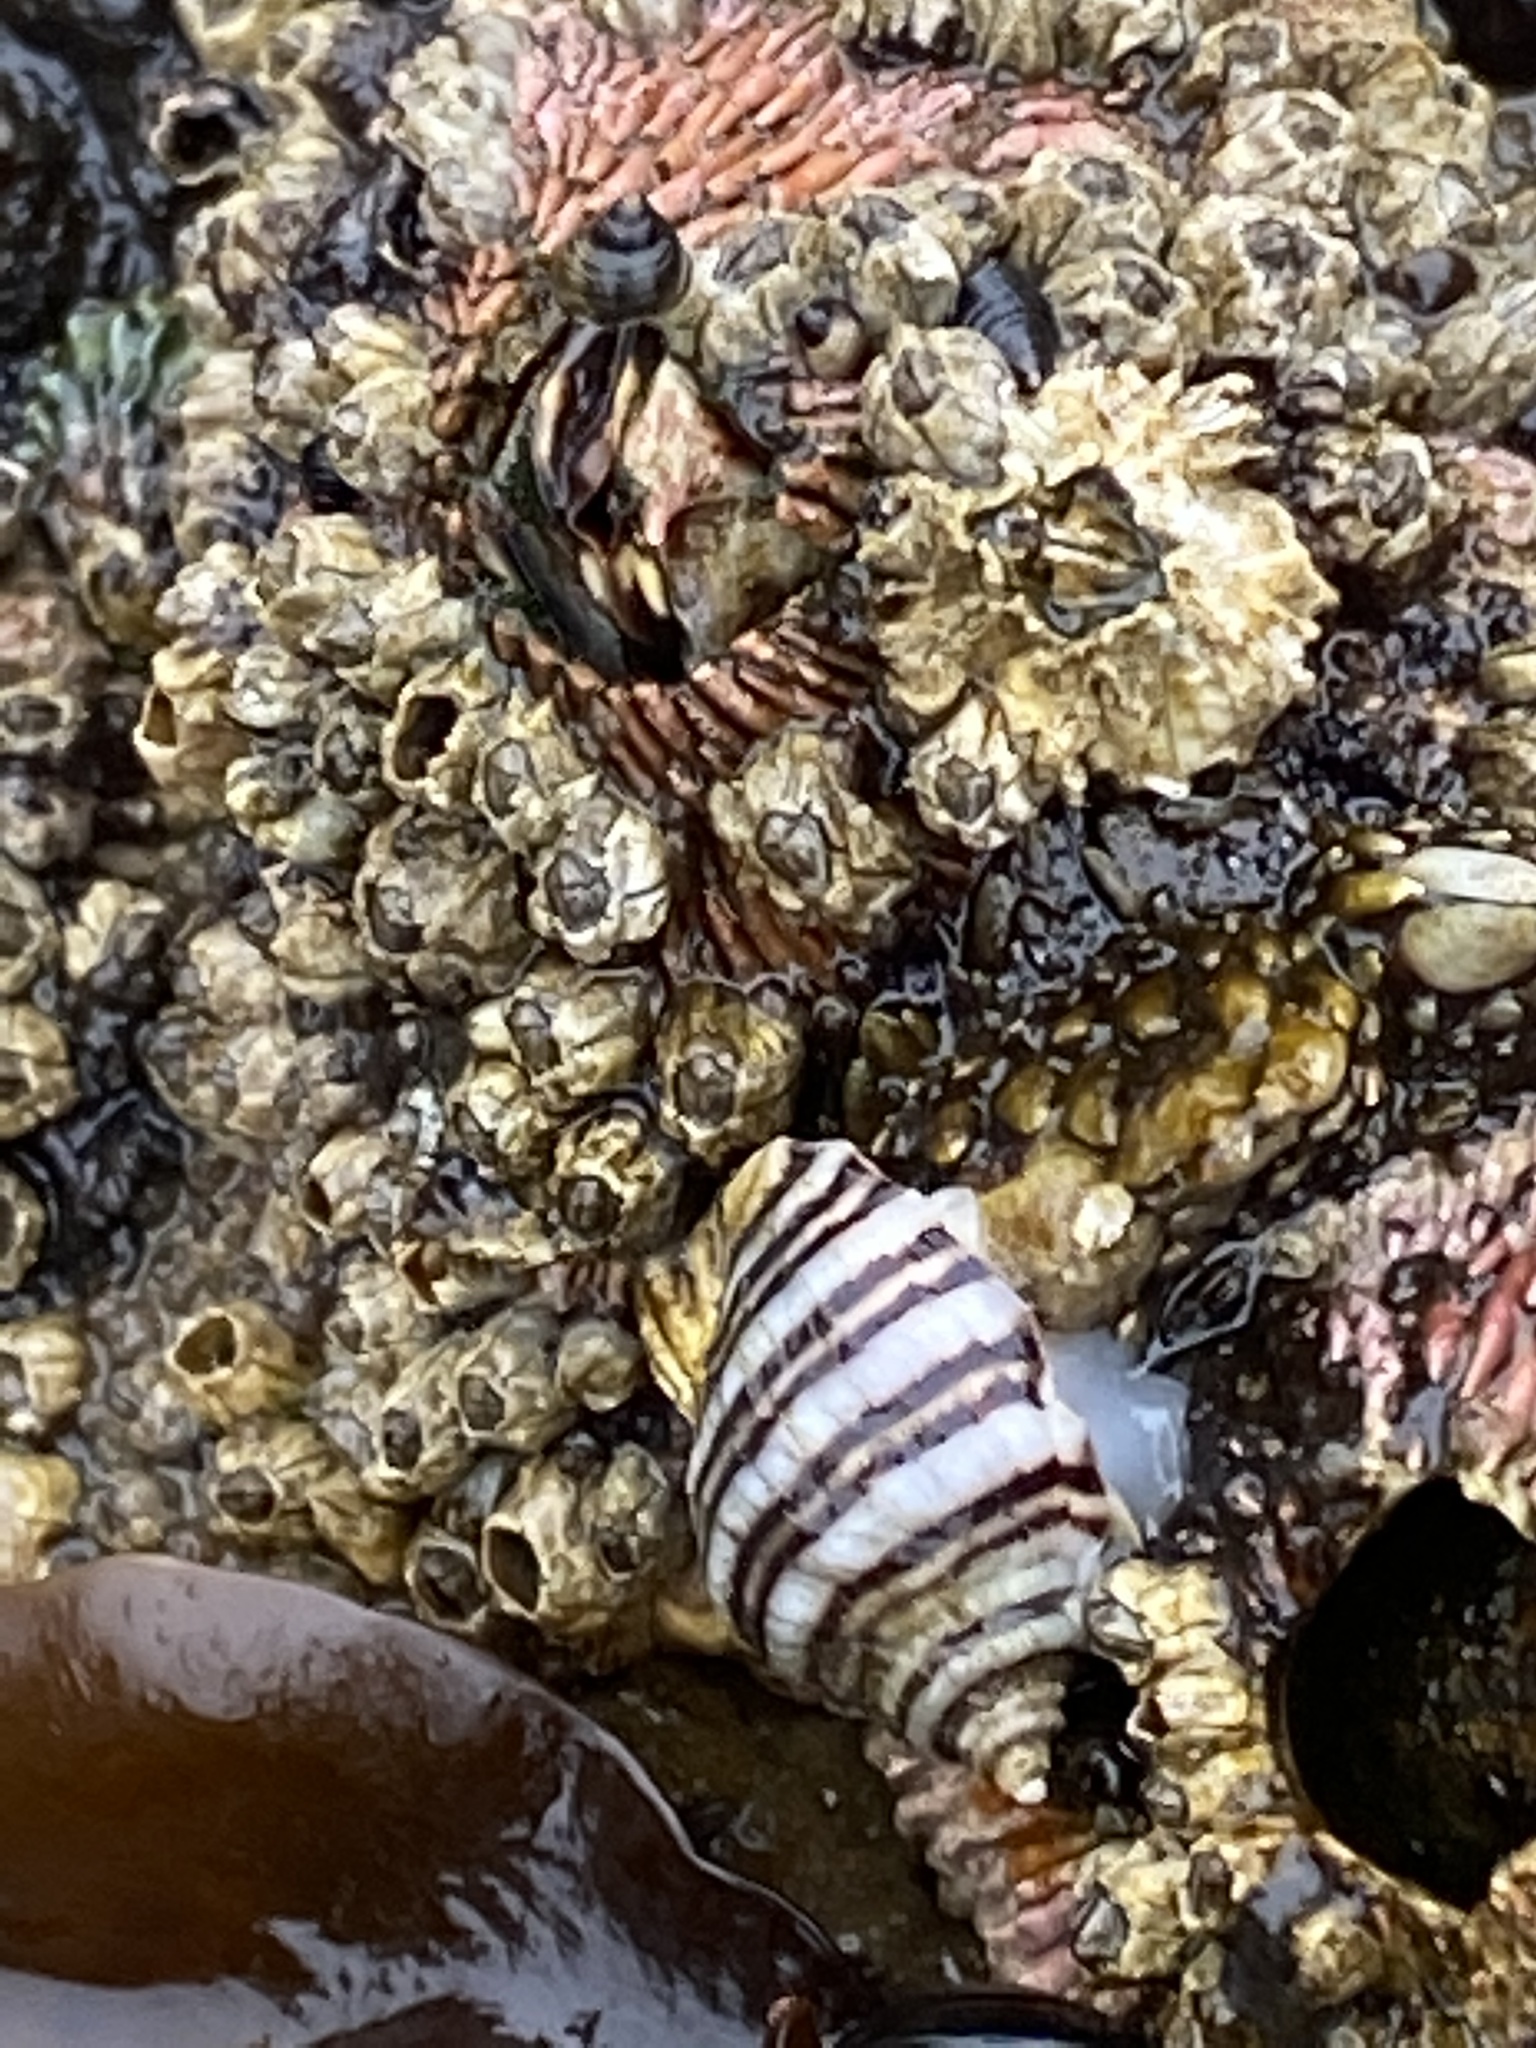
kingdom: Animalia
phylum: Mollusca
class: Gastropoda
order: Neogastropoda
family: Muricidae
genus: Nucella
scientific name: Nucella ostrina
